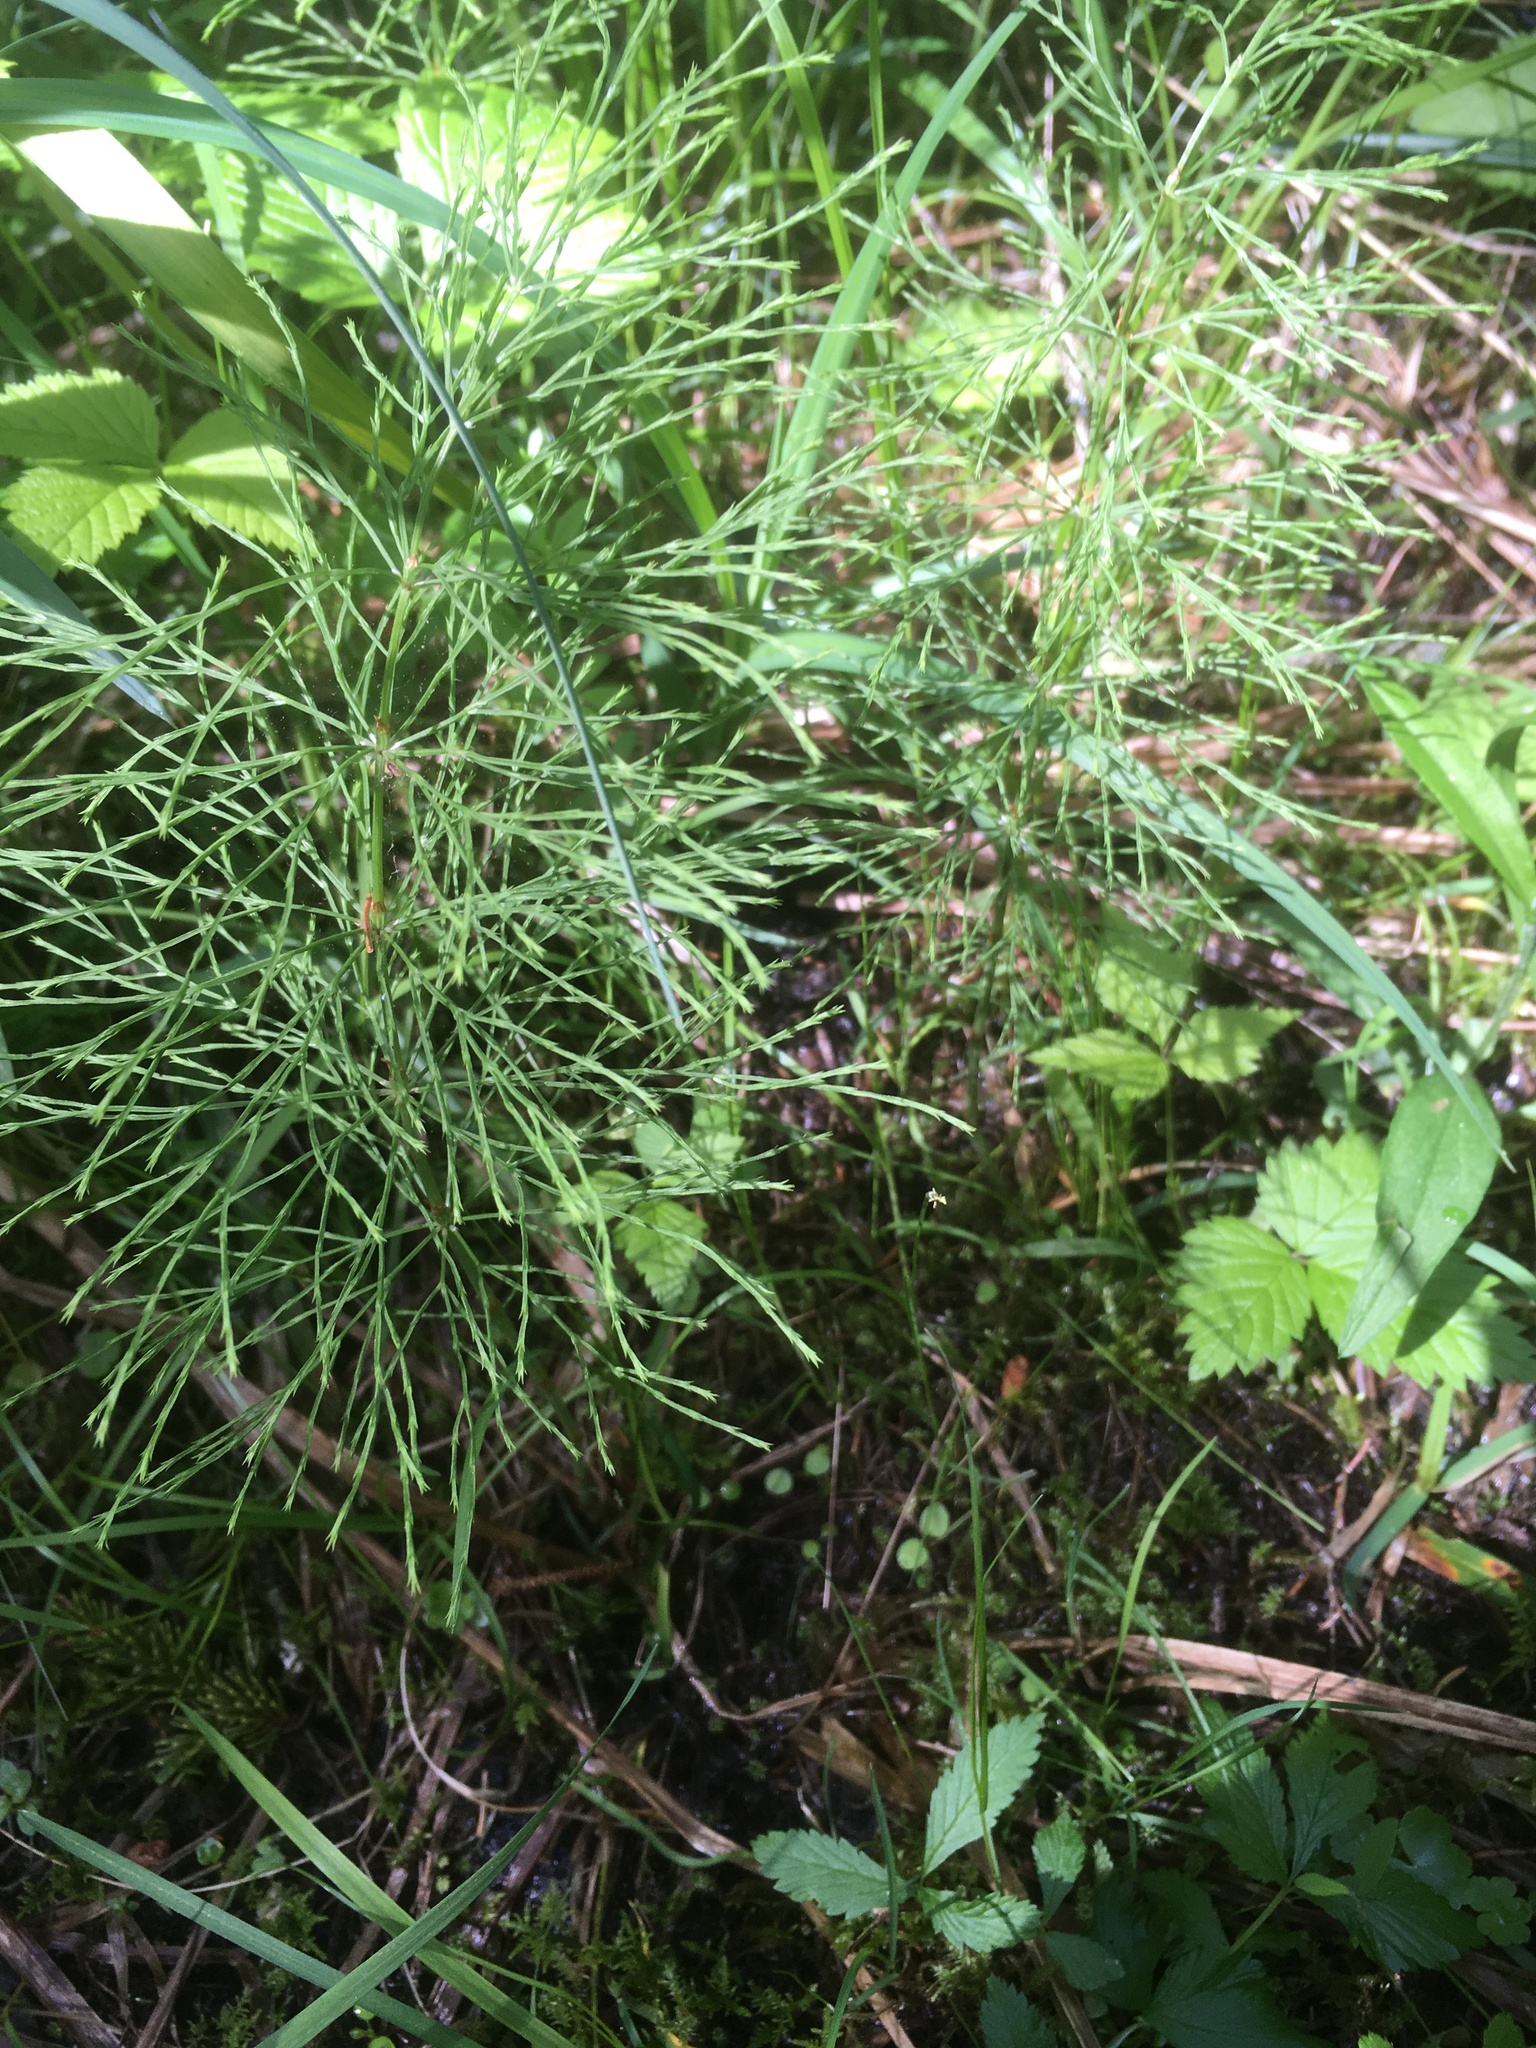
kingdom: Plantae
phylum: Tracheophyta
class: Polypodiopsida
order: Equisetales
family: Equisetaceae
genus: Equisetum
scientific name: Equisetum sylvaticum
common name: Wood horsetail
